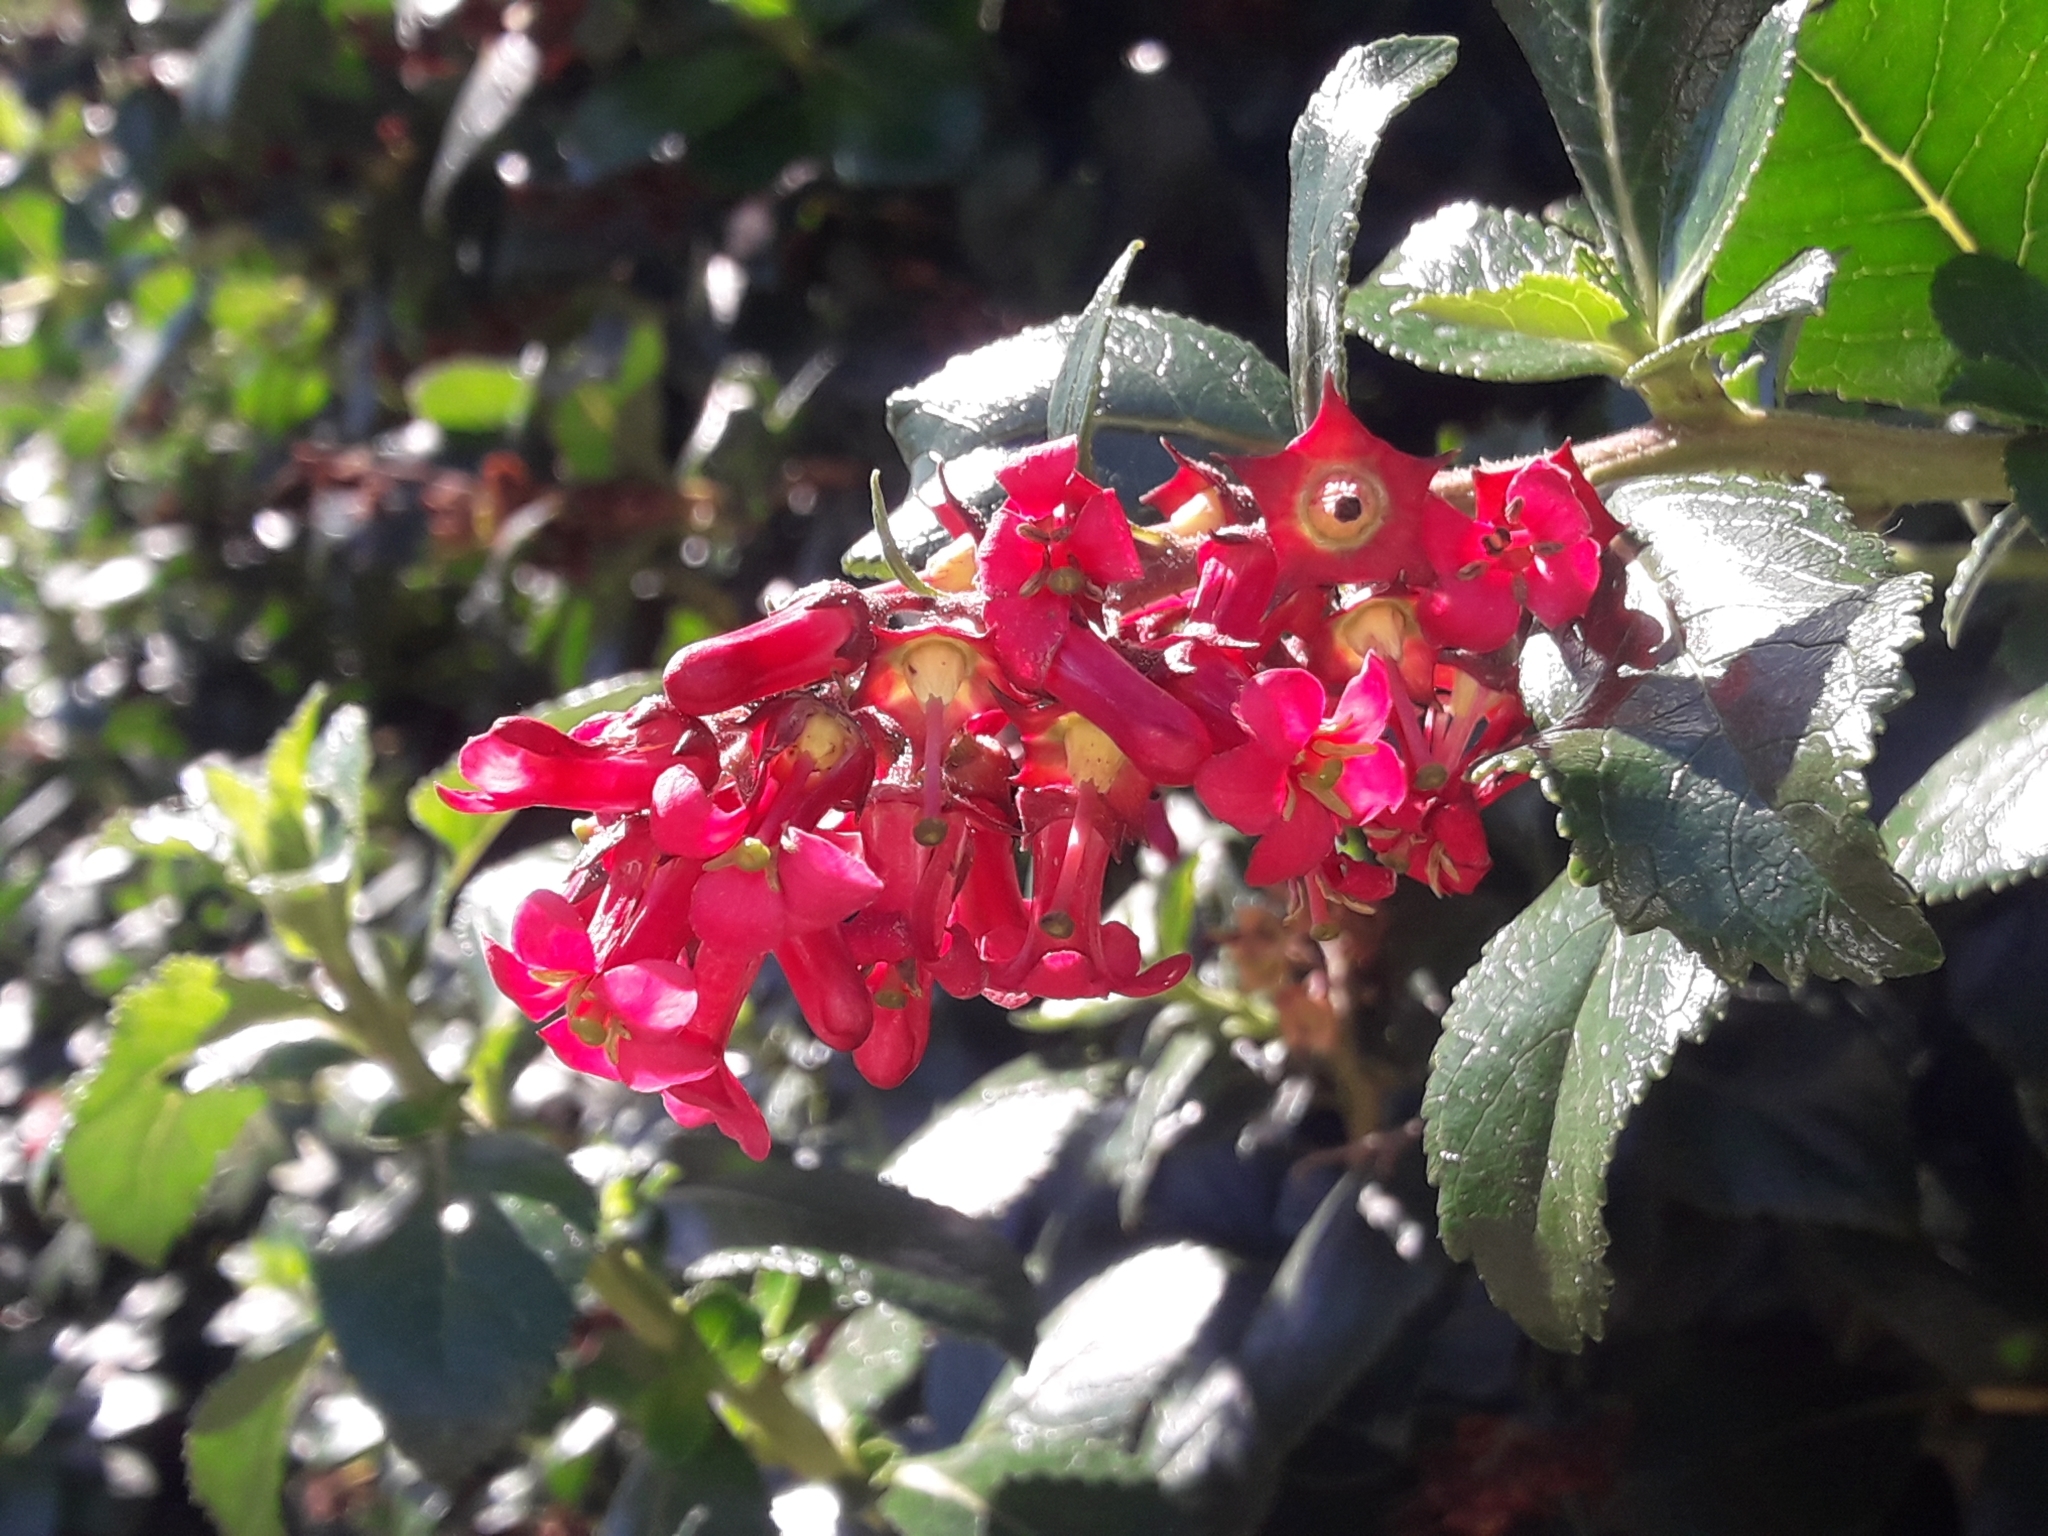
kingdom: Plantae
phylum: Tracheophyta
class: Magnoliopsida
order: Escalloniales
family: Escalloniaceae
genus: Escallonia
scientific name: Escallonia rubra
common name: Redclaws
